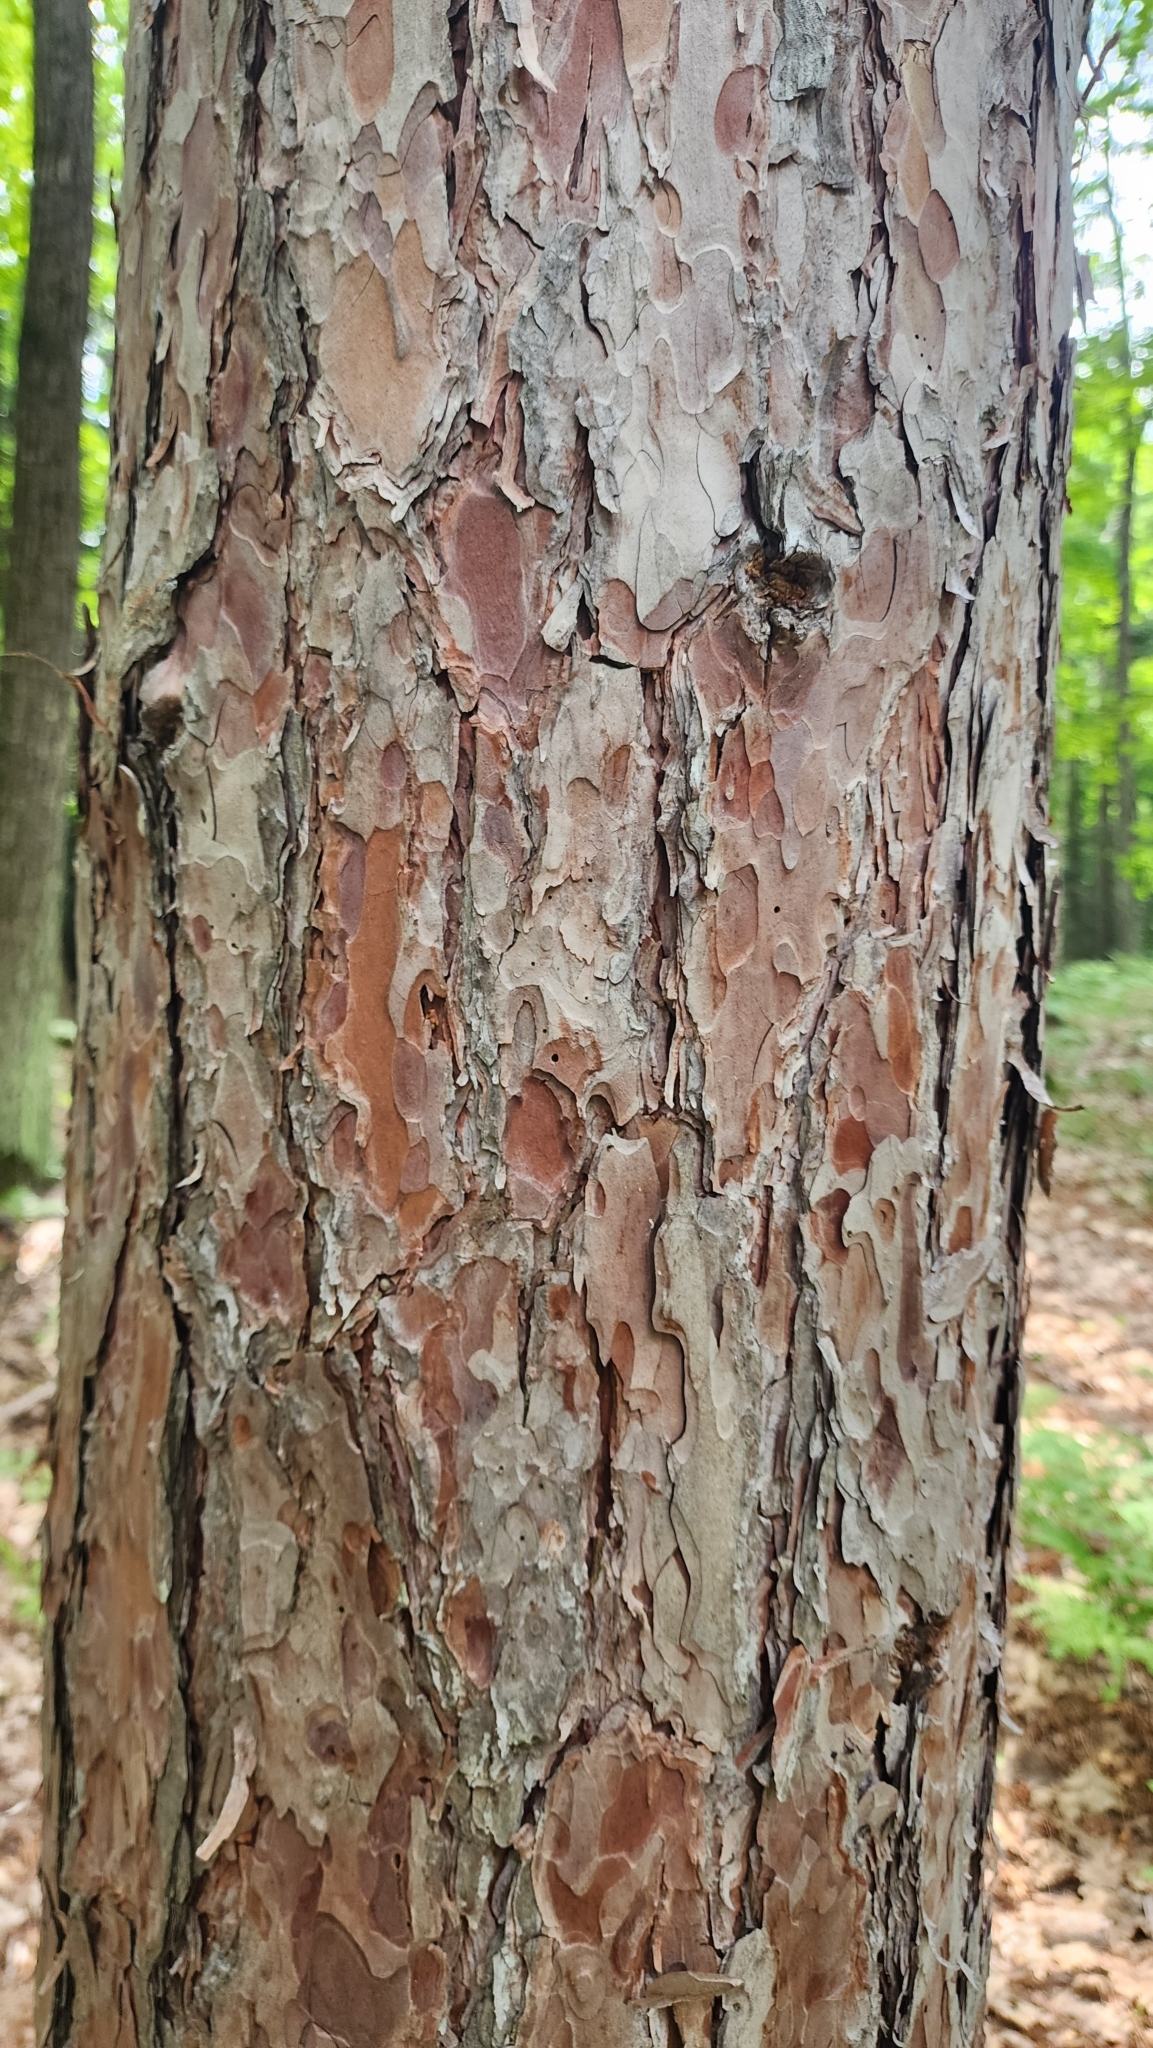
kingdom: Plantae
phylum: Tracheophyta
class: Pinopsida
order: Pinales
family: Pinaceae
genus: Pinus
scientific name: Pinus resinosa
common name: Norway pine
